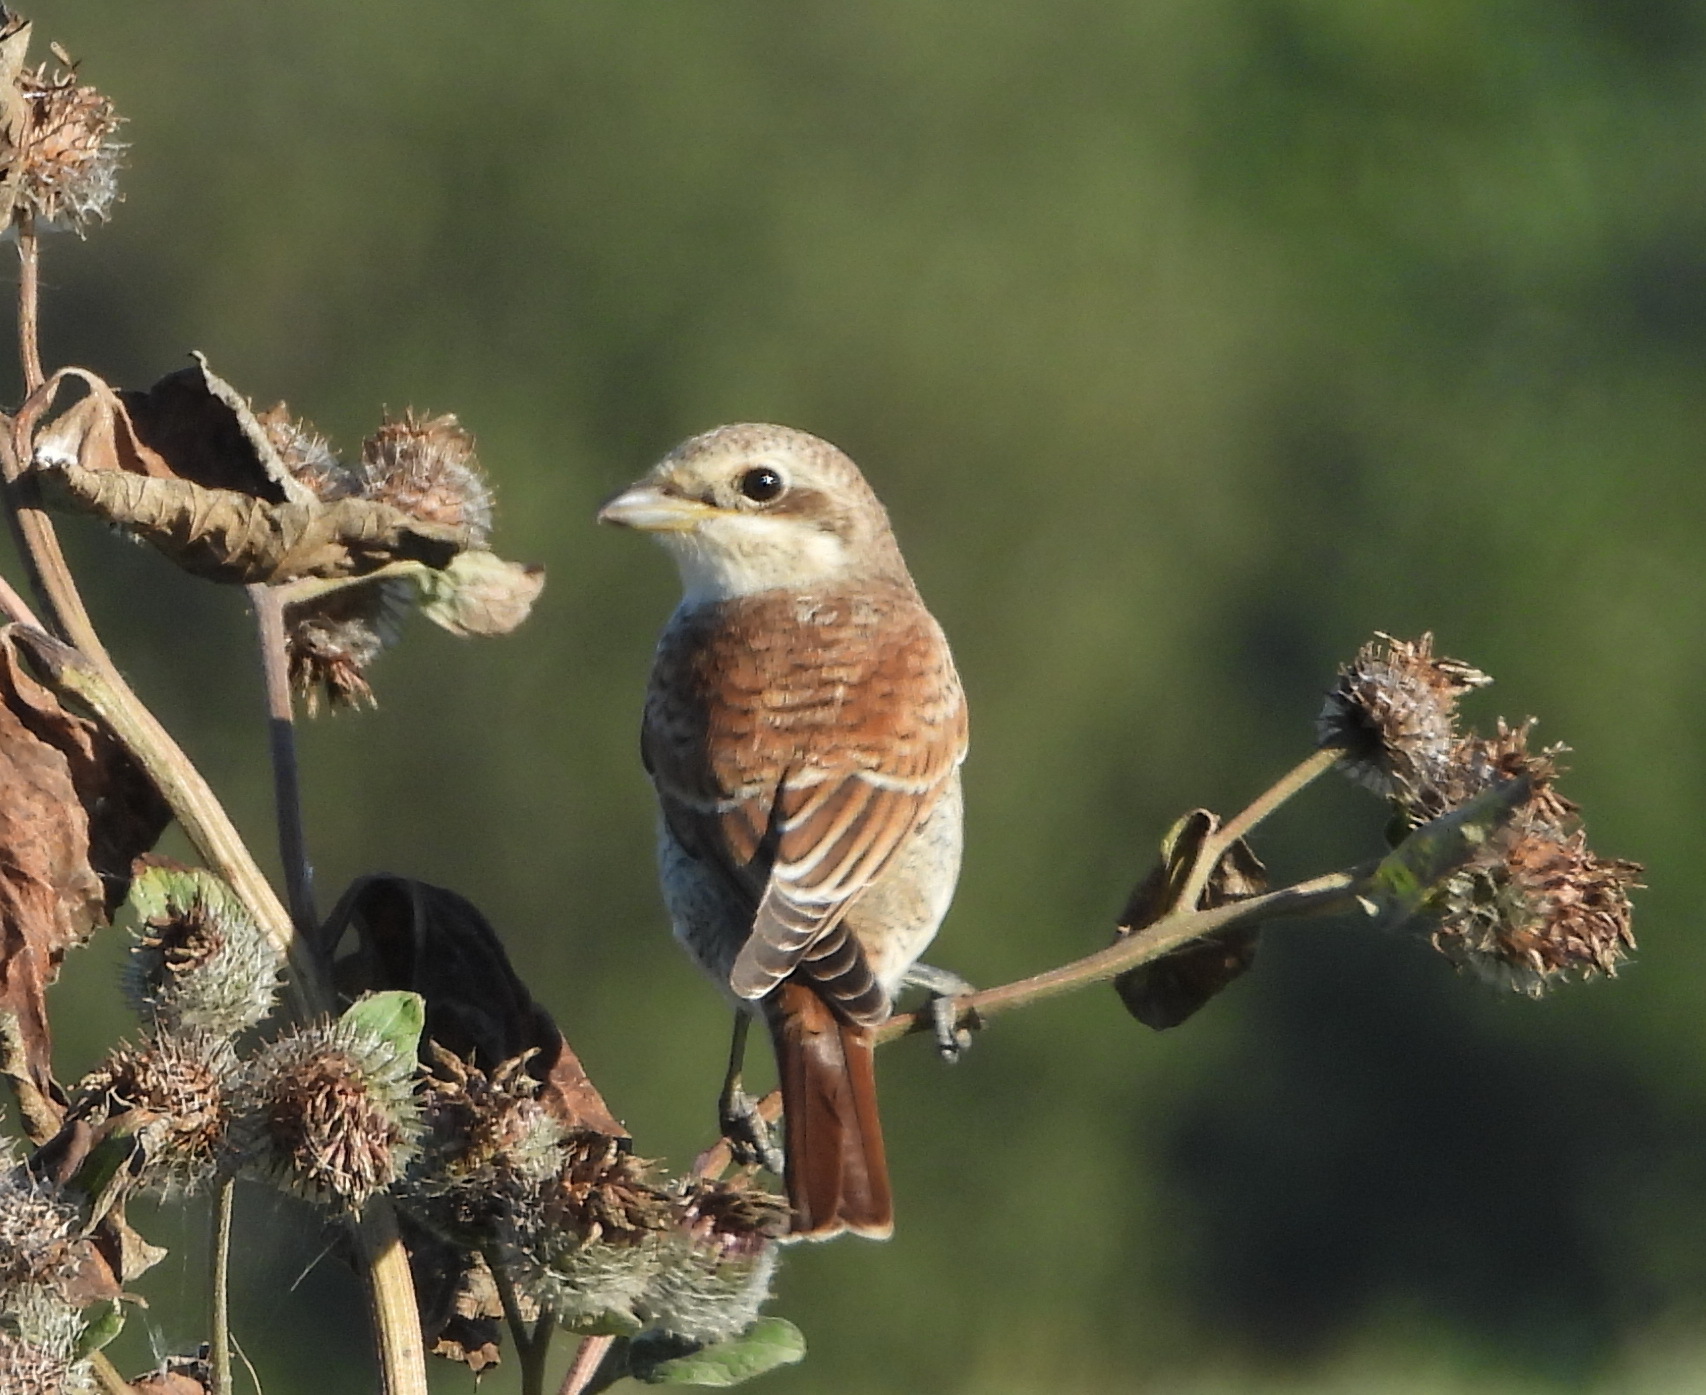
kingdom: Animalia
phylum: Chordata
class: Aves
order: Passeriformes
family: Laniidae
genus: Lanius
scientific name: Lanius collurio
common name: Red-backed shrike
